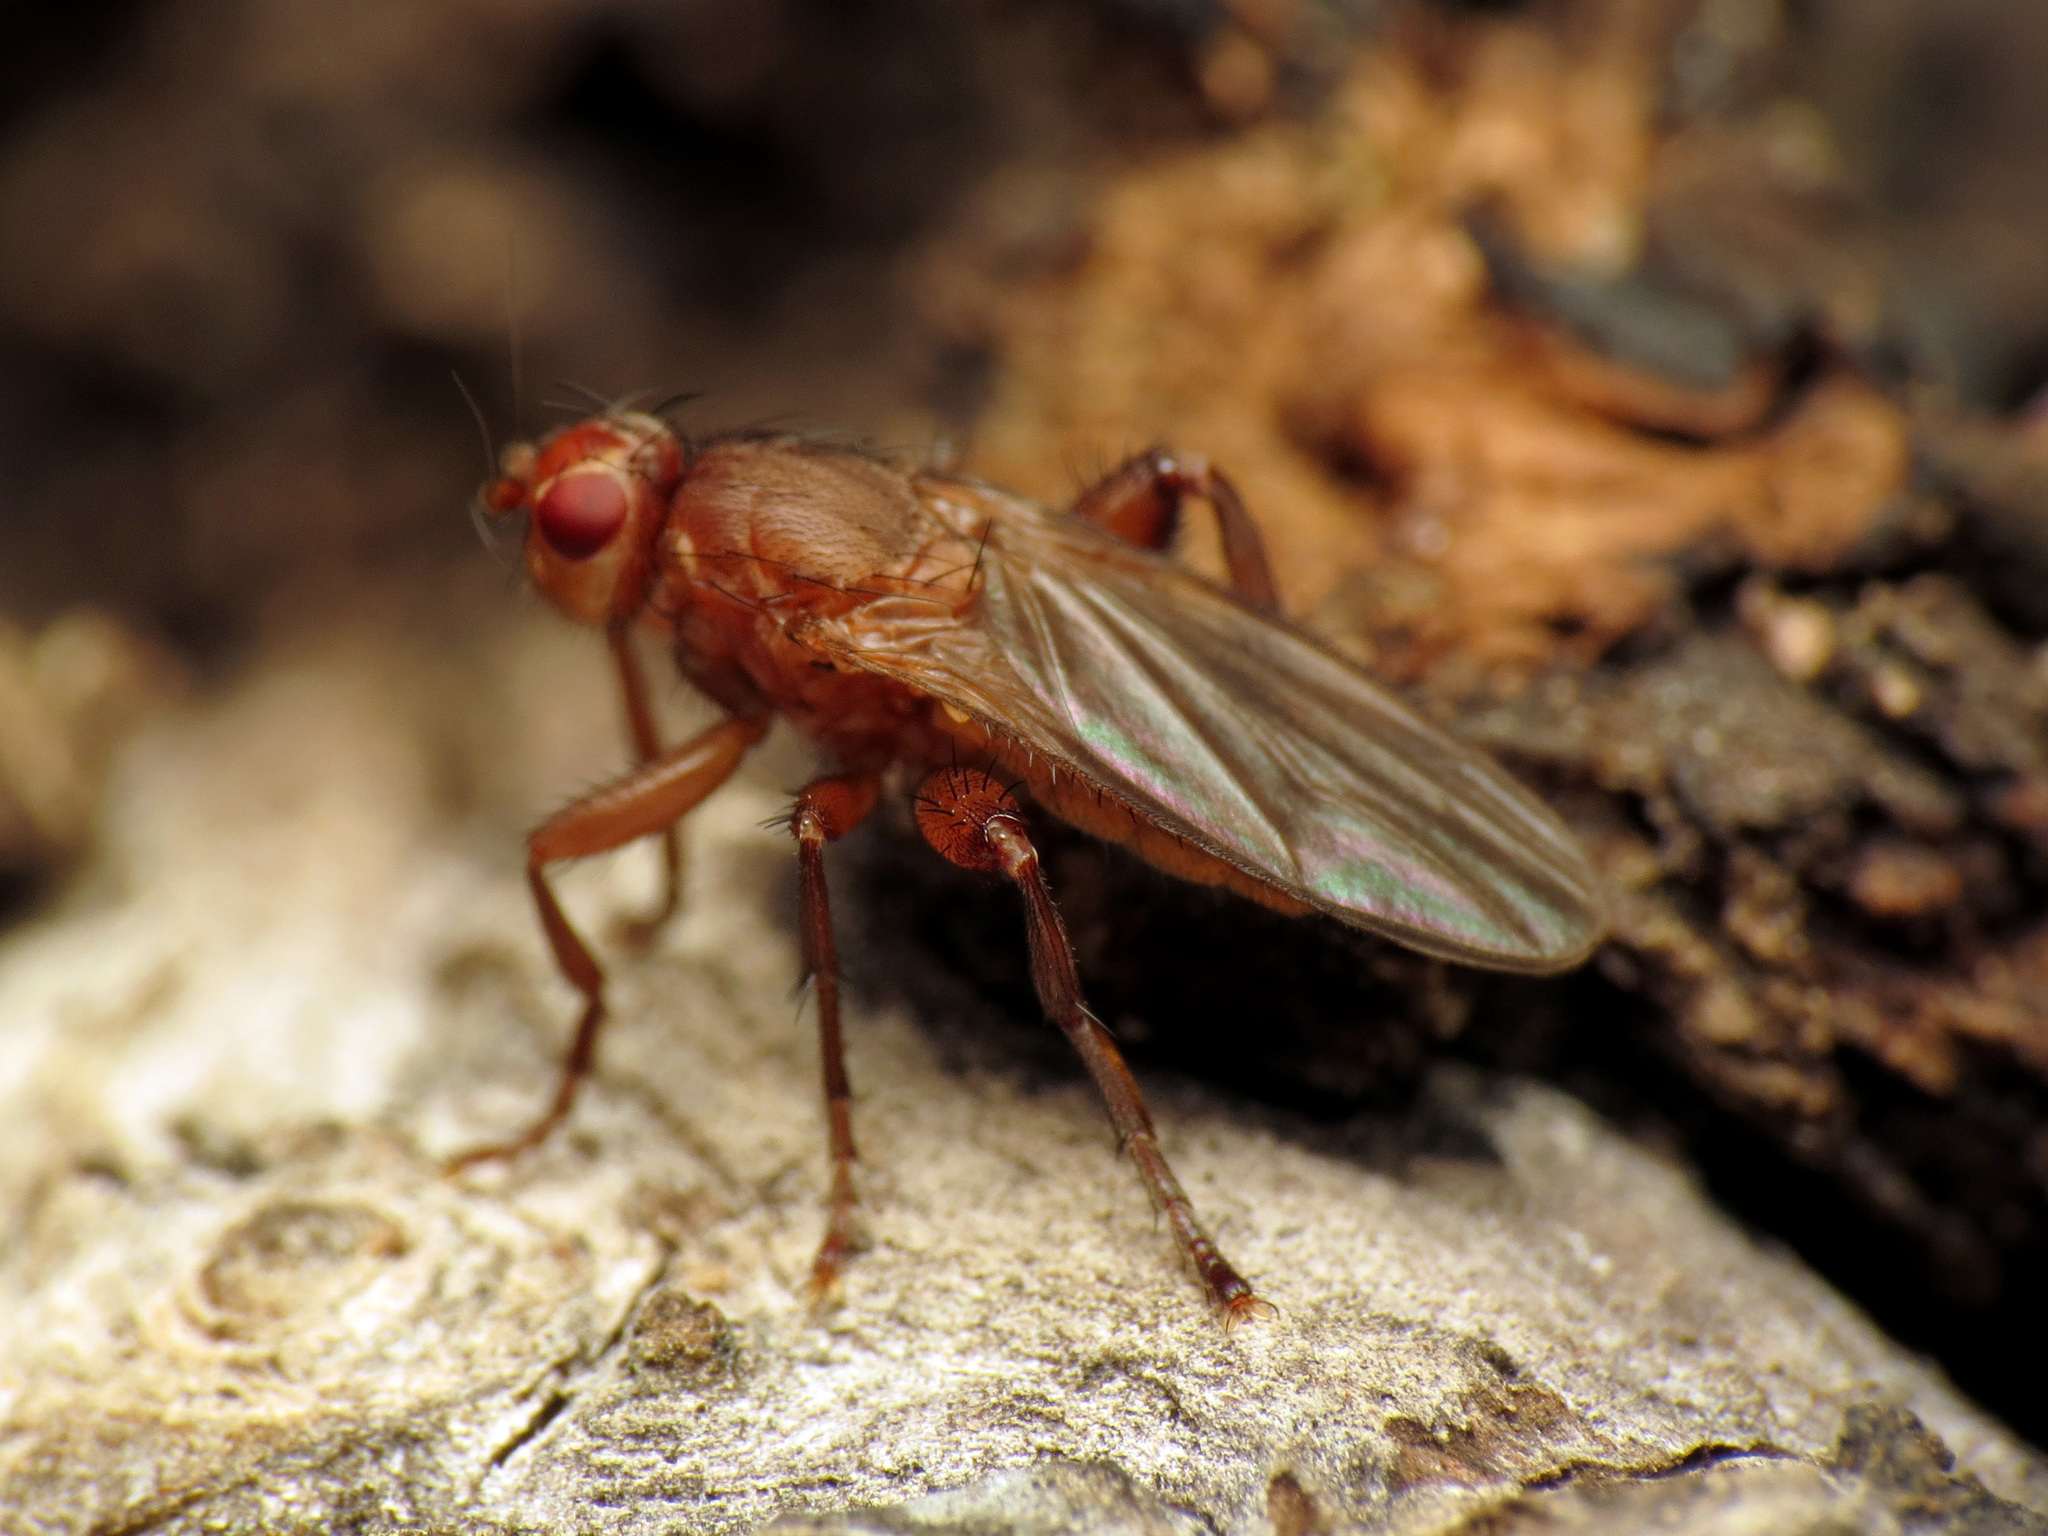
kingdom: Animalia
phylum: Arthropoda
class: Insecta
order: Diptera
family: Heleomyzidae
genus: Lutomyia
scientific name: Lutomyia spurca
